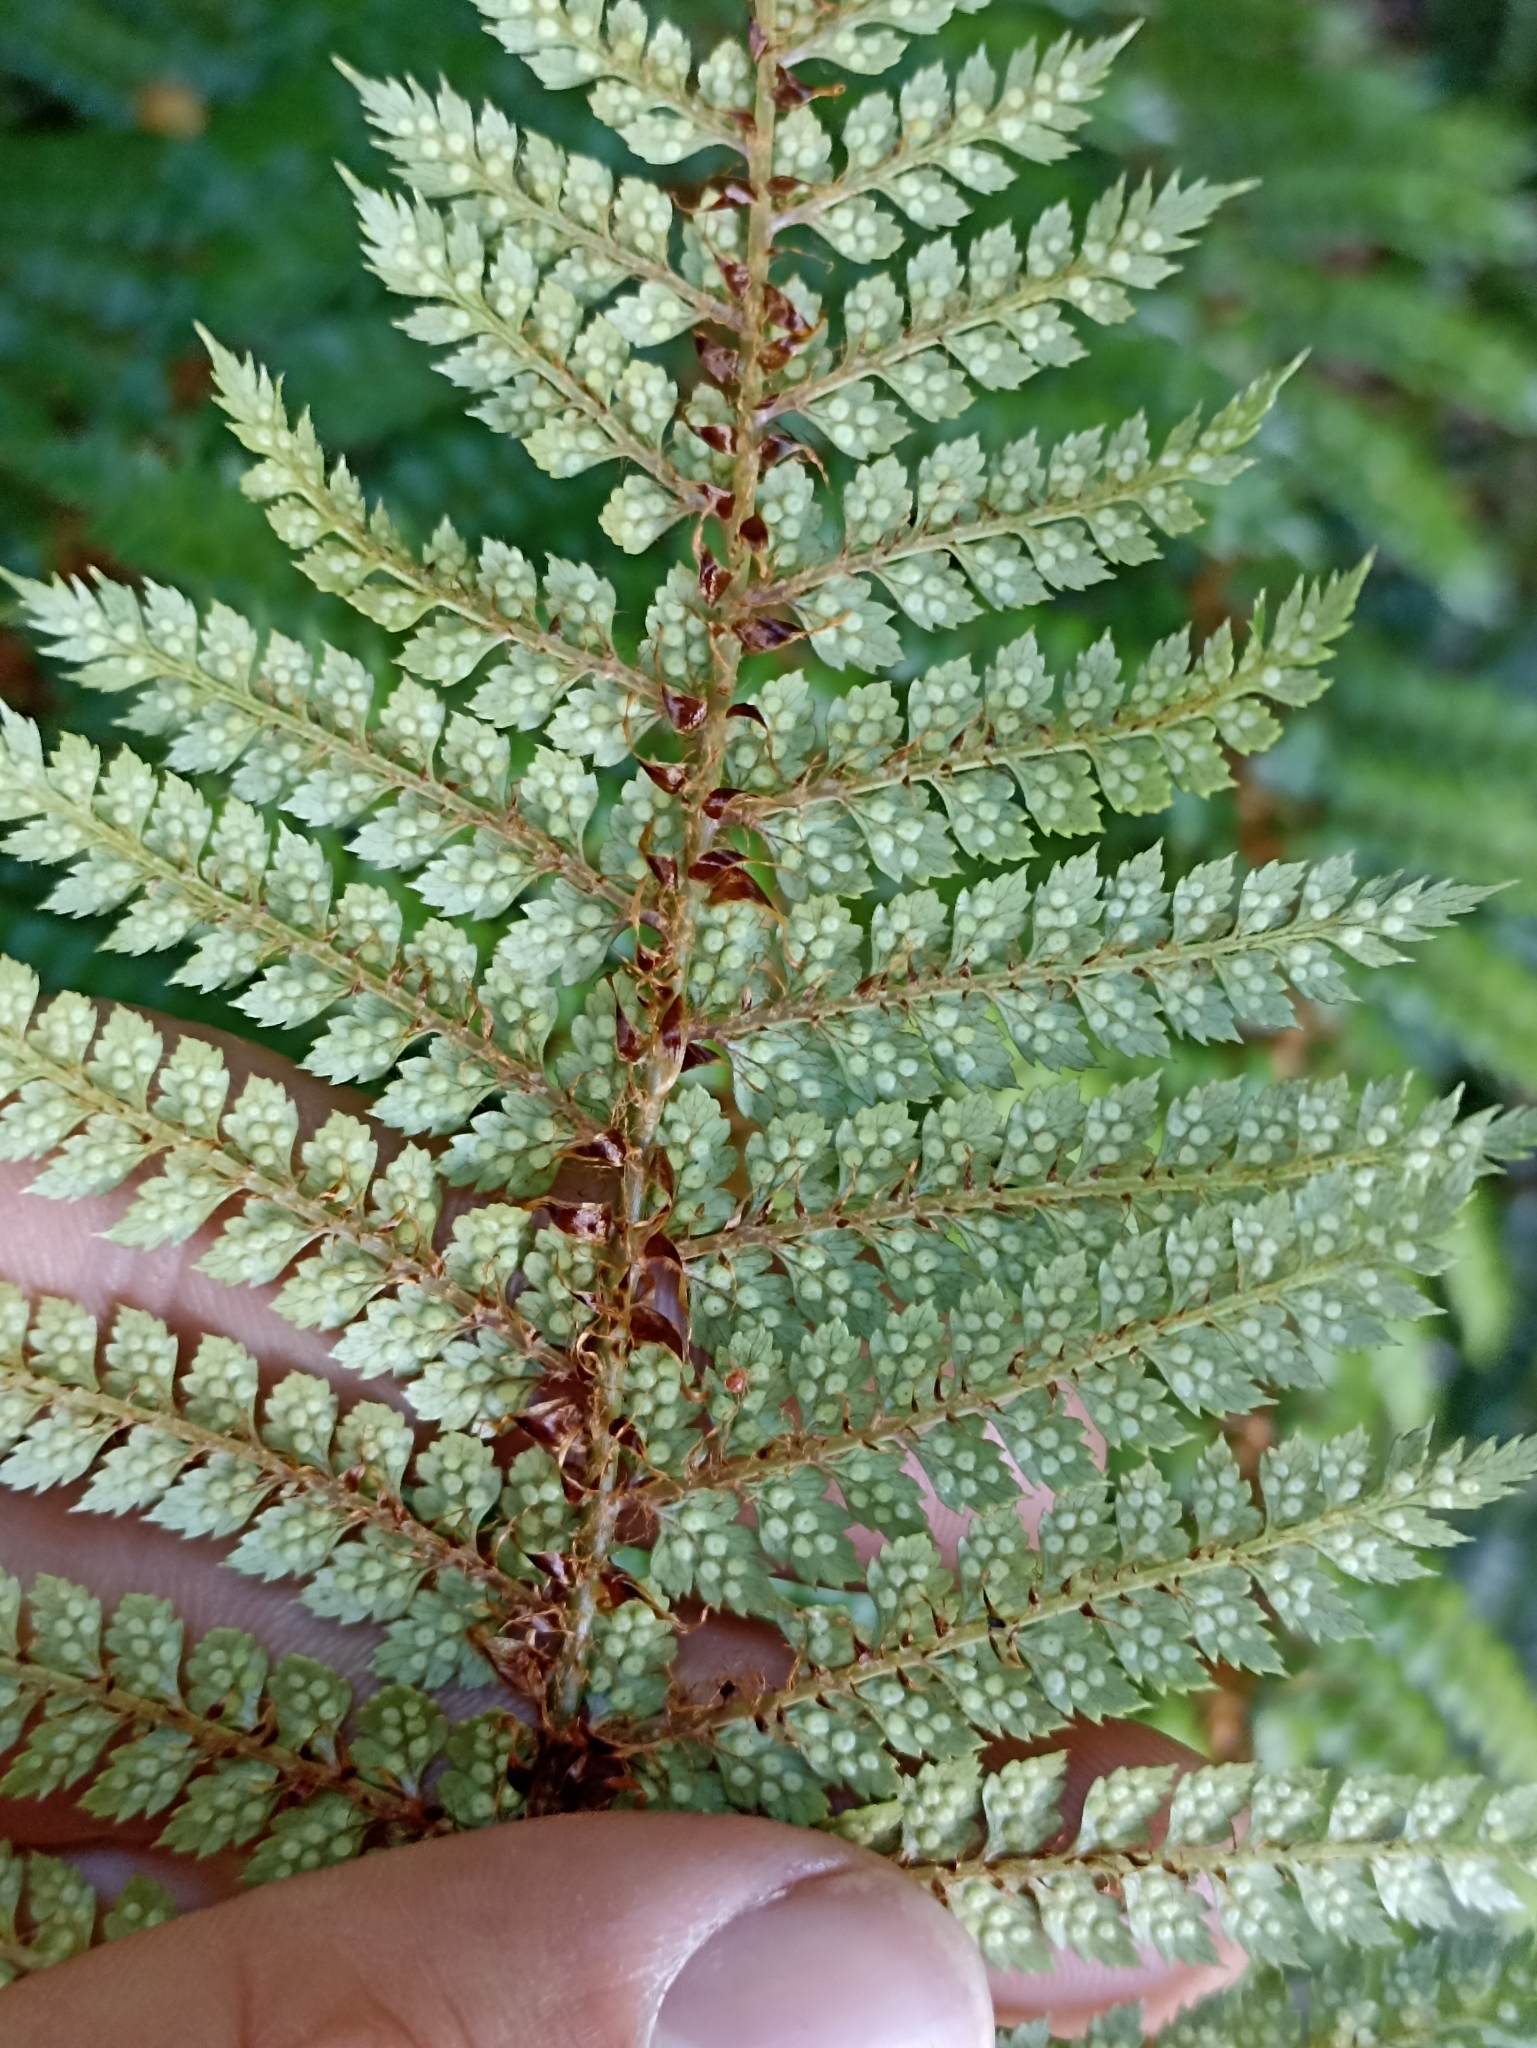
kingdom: Plantae
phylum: Tracheophyta
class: Polypodiopsida
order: Polypodiales
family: Dryopteridaceae
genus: Polystichum
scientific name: Polystichum vestitum
